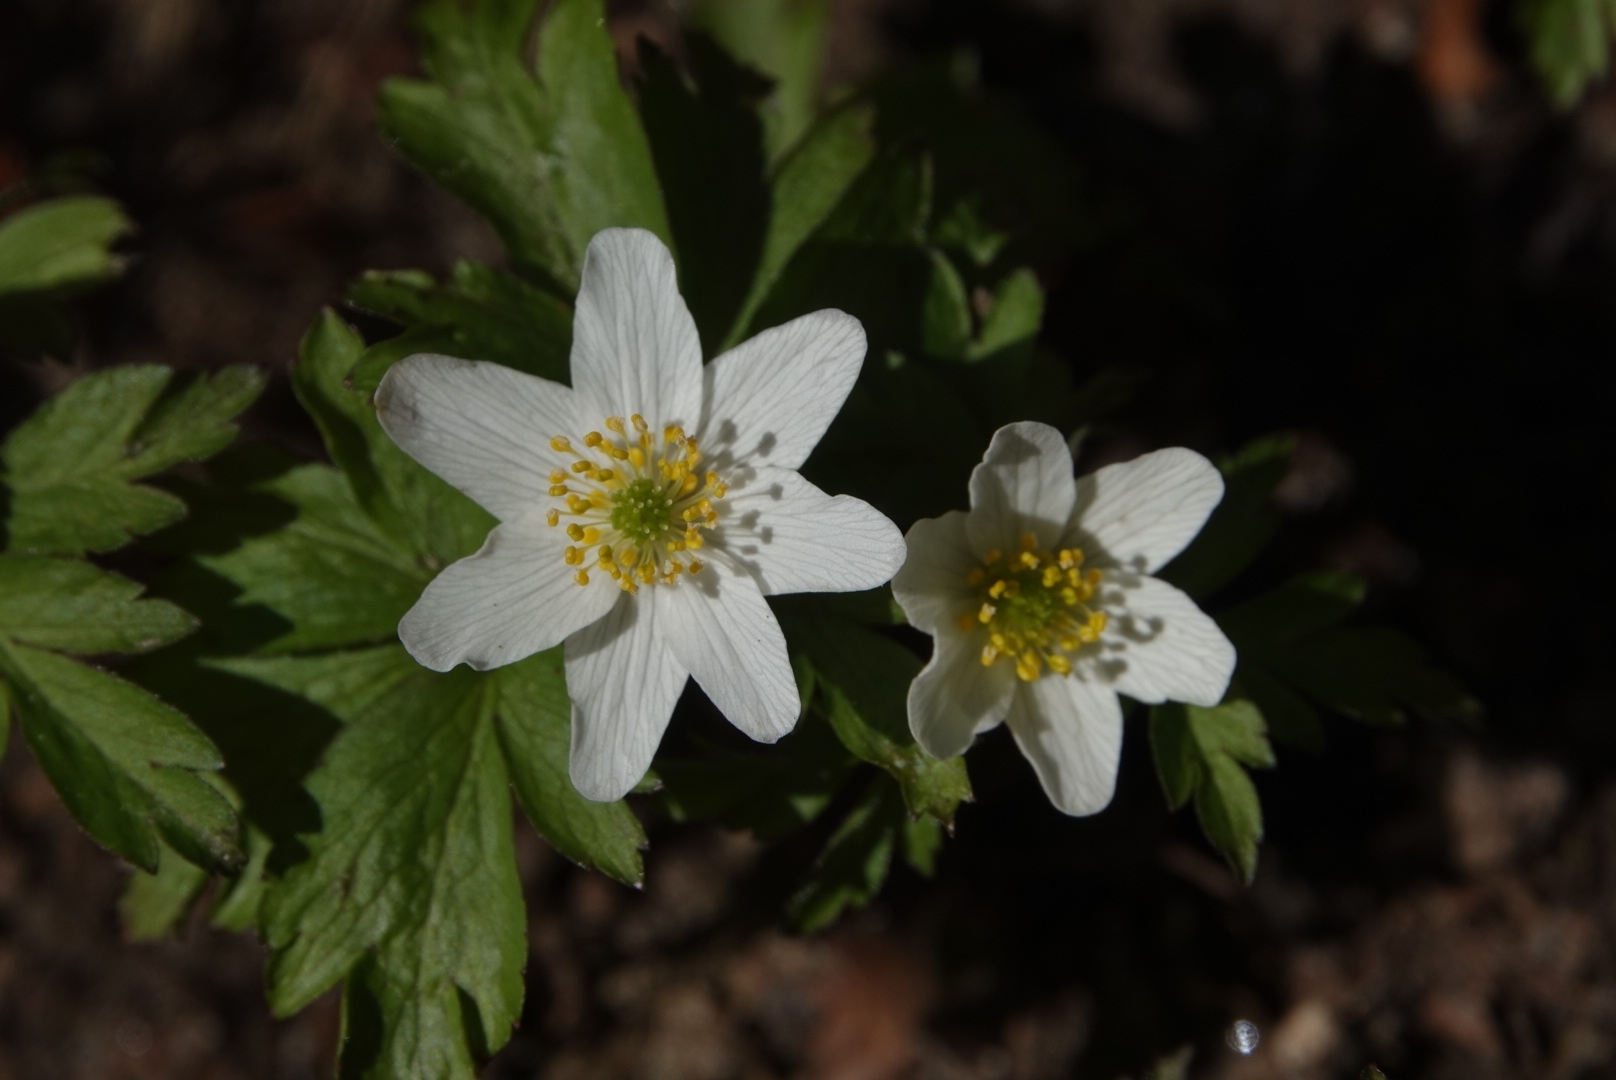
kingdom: Plantae
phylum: Tracheophyta
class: Magnoliopsida
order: Ranunculales
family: Ranunculaceae
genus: Anemone
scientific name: Anemone nemorosa
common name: Wood anemone
